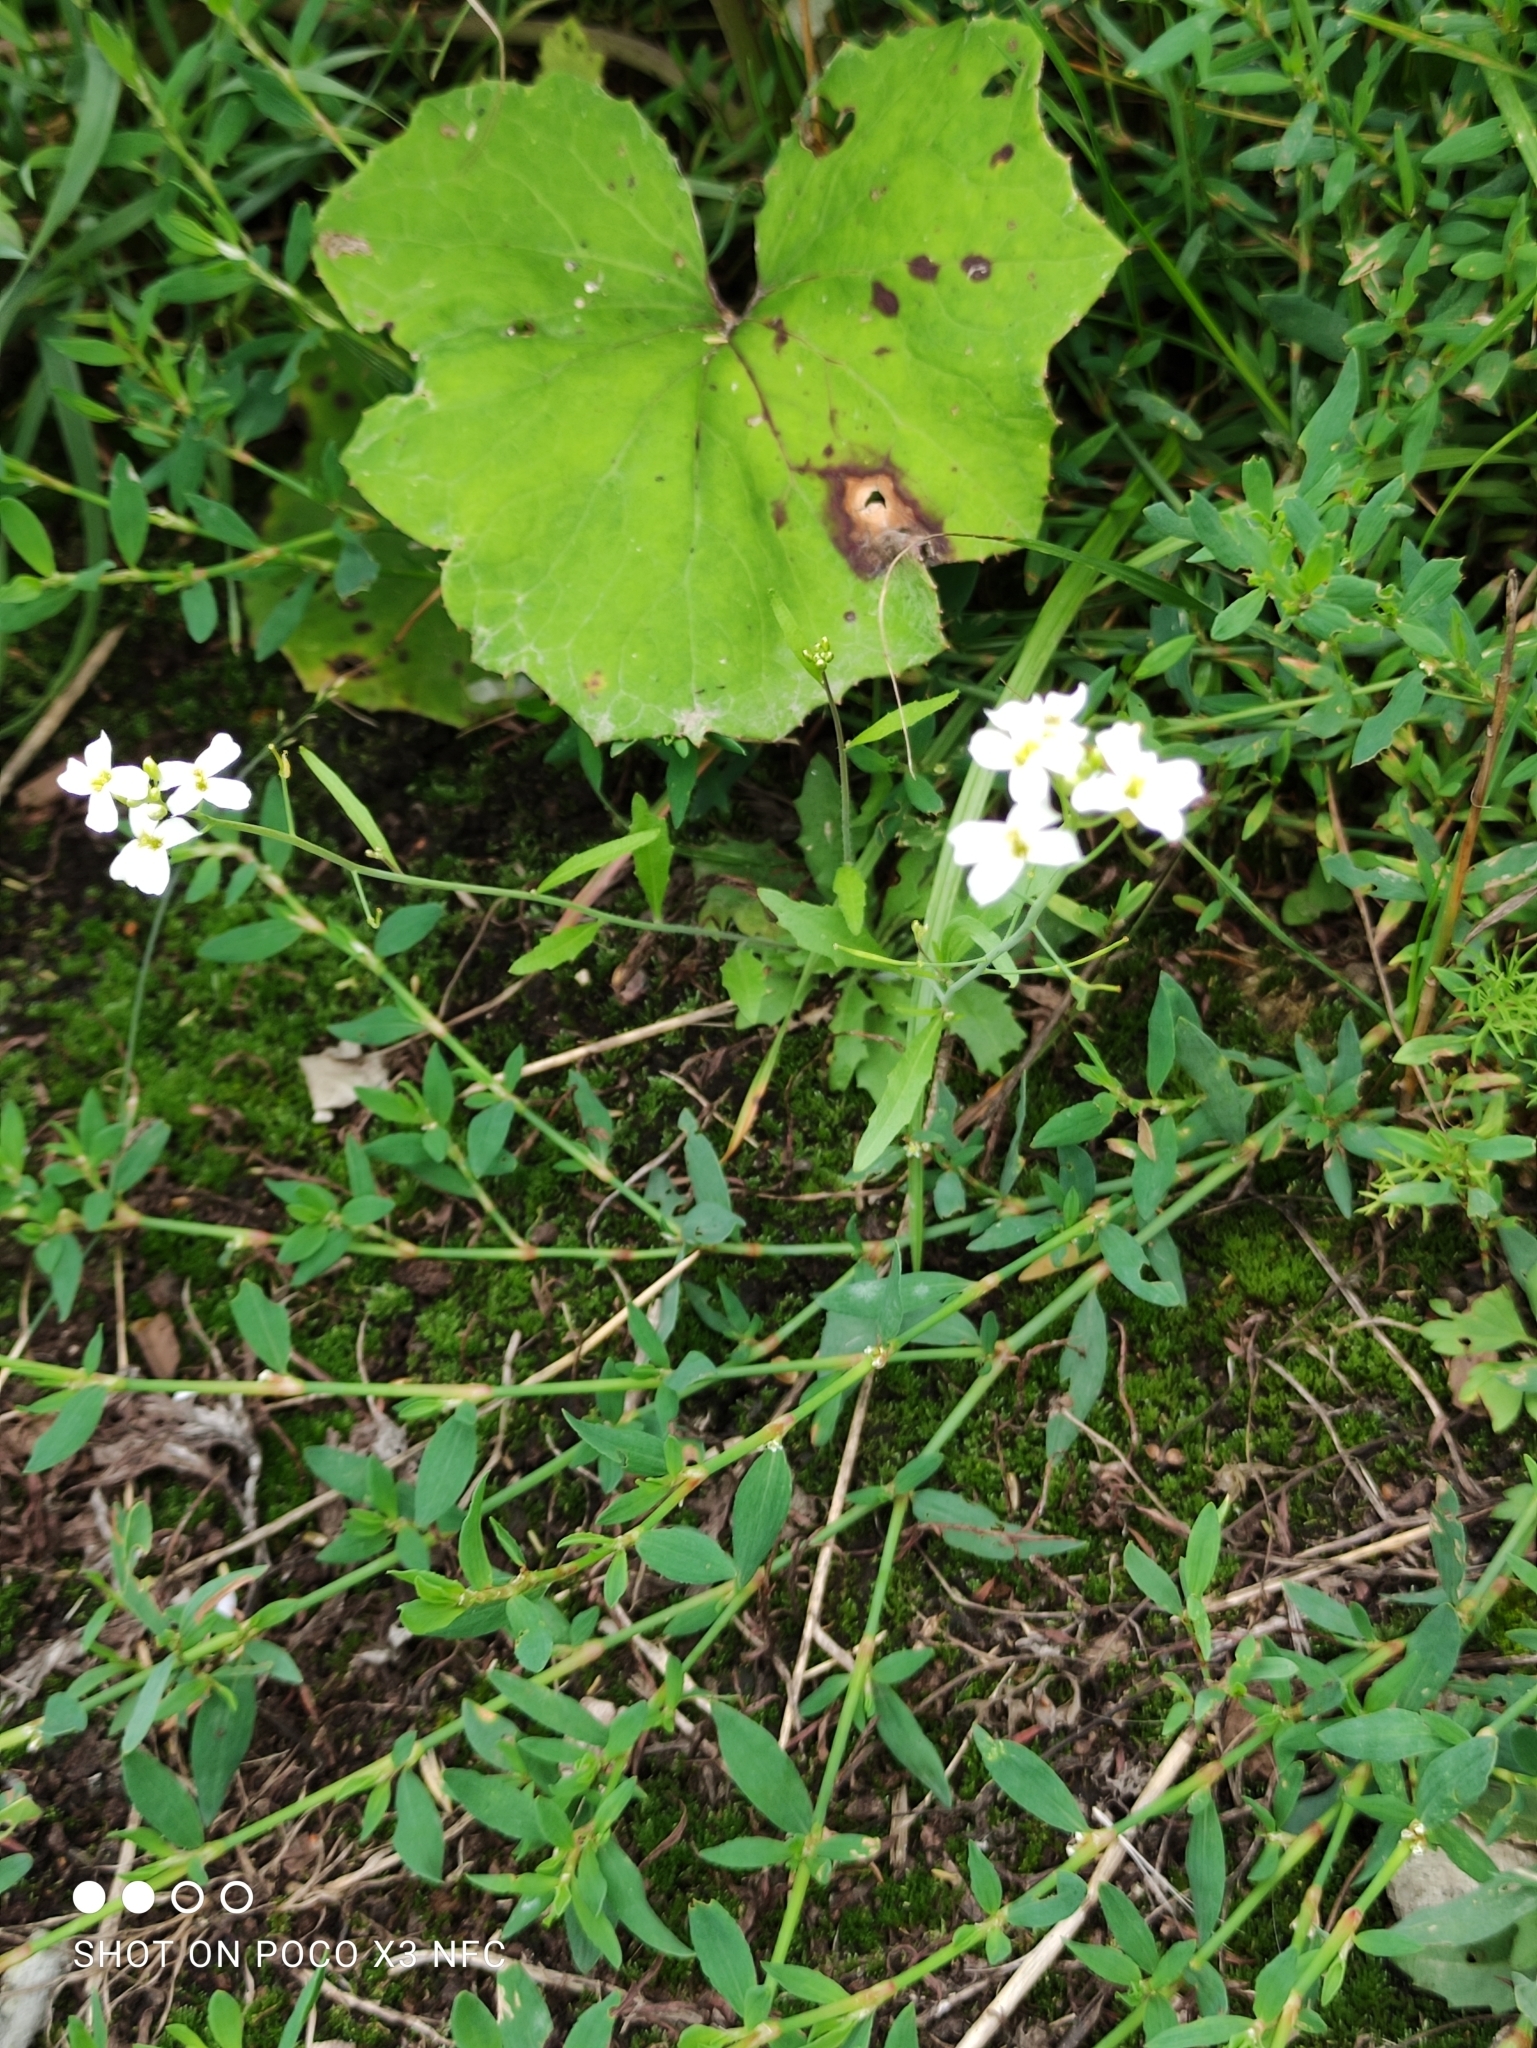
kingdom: Plantae
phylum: Tracheophyta
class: Magnoliopsida
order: Brassicales
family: Brassicaceae
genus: Arabidopsis
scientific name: Arabidopsis arenosa
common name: Sand rock-cress
